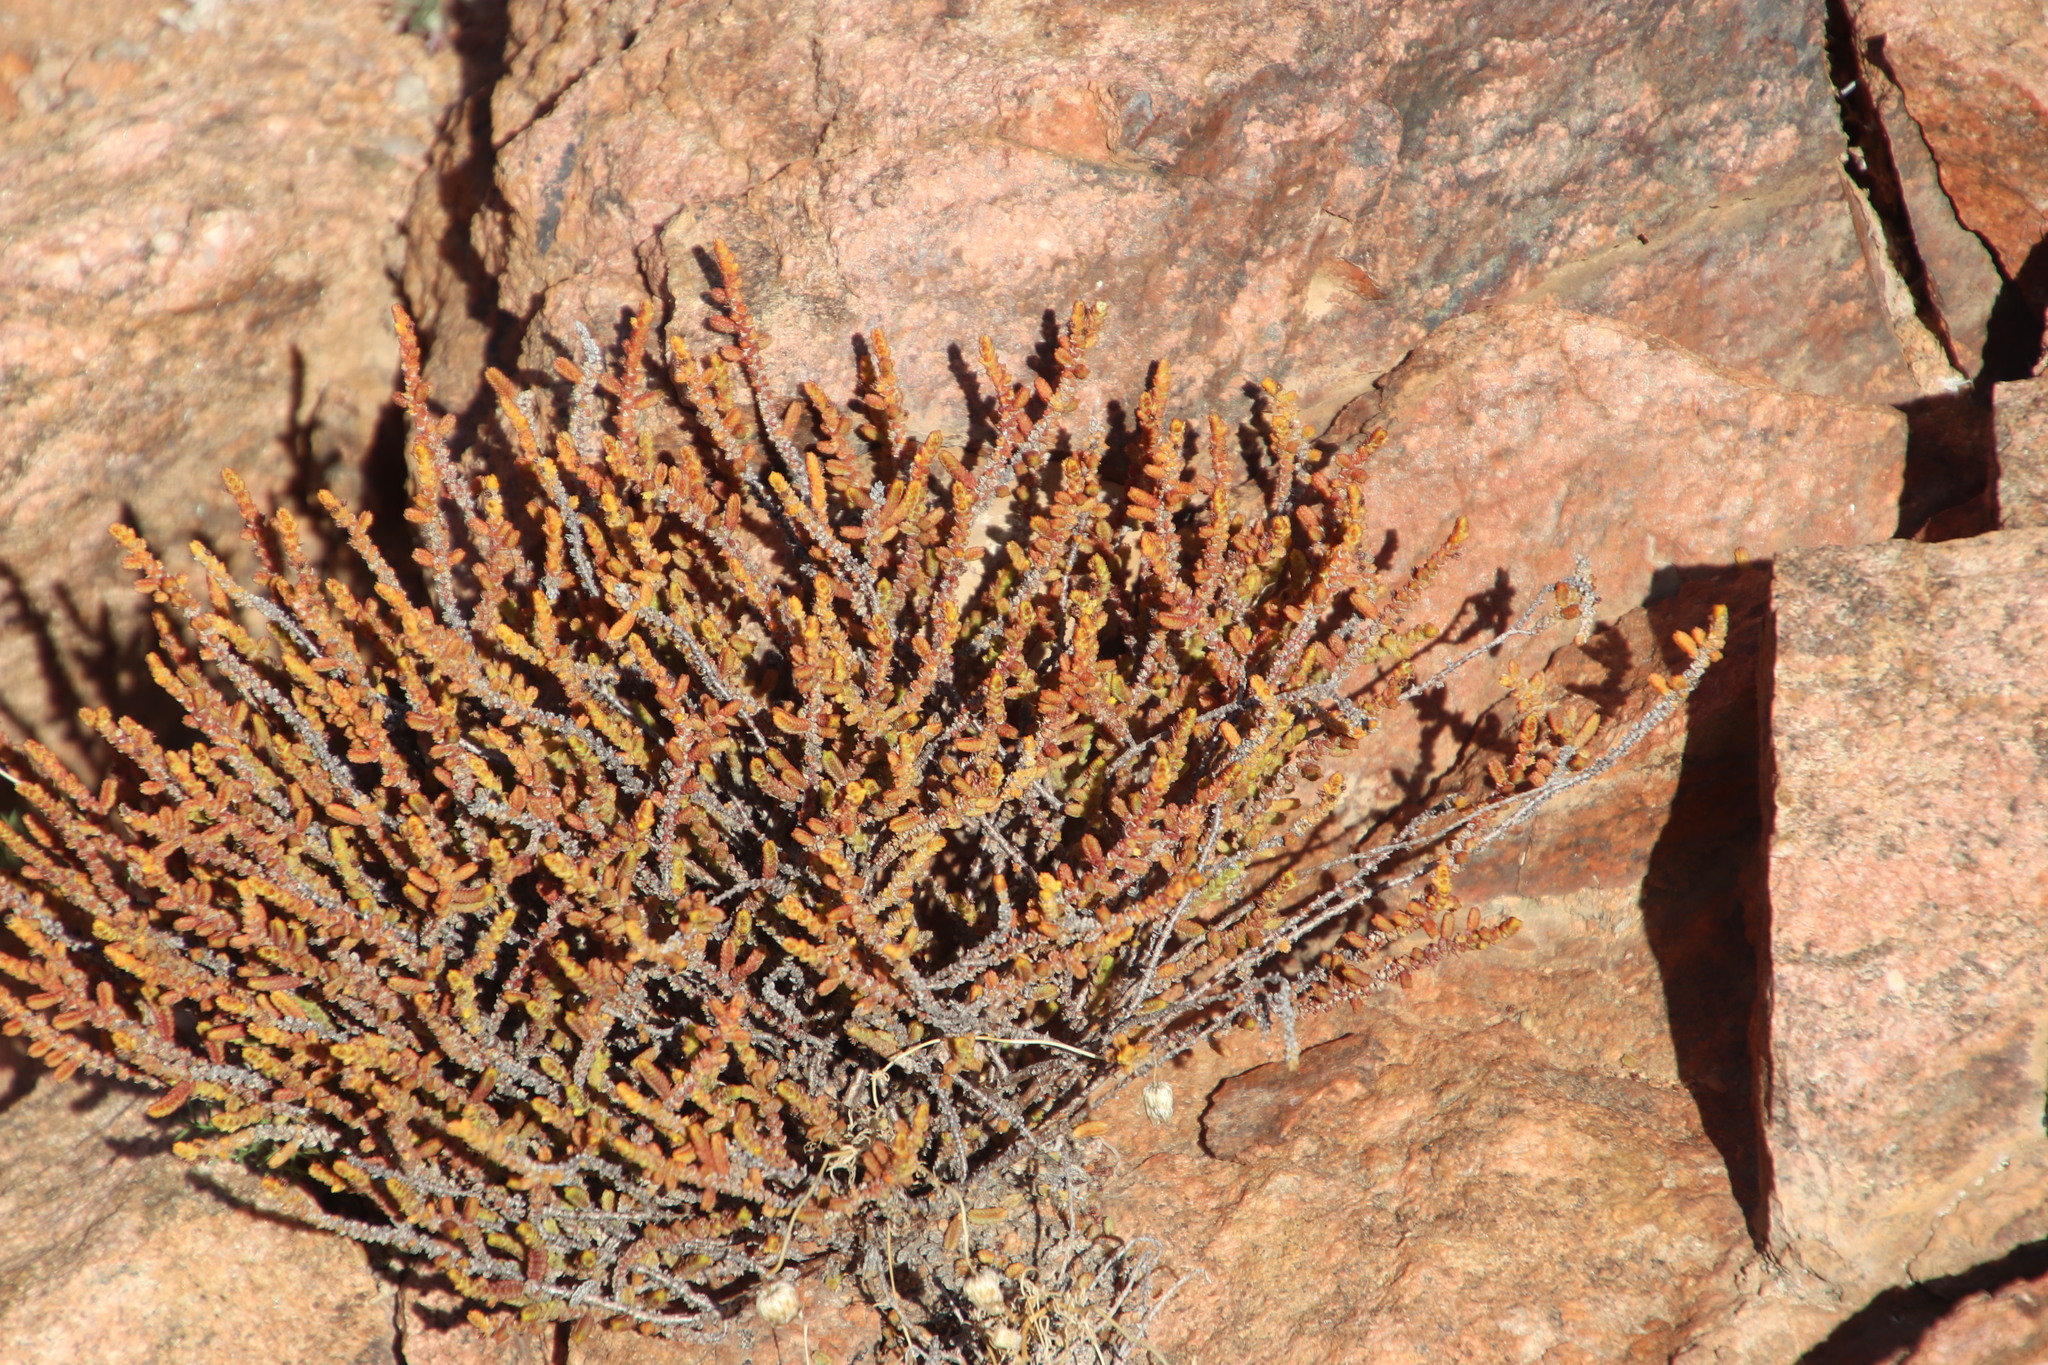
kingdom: Plantae
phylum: Tracheophyta
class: Magnoliopsida
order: Saxifragales
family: Crassulaceae
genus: Crassula
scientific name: Crassula muscosa
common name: Toy-cypress
